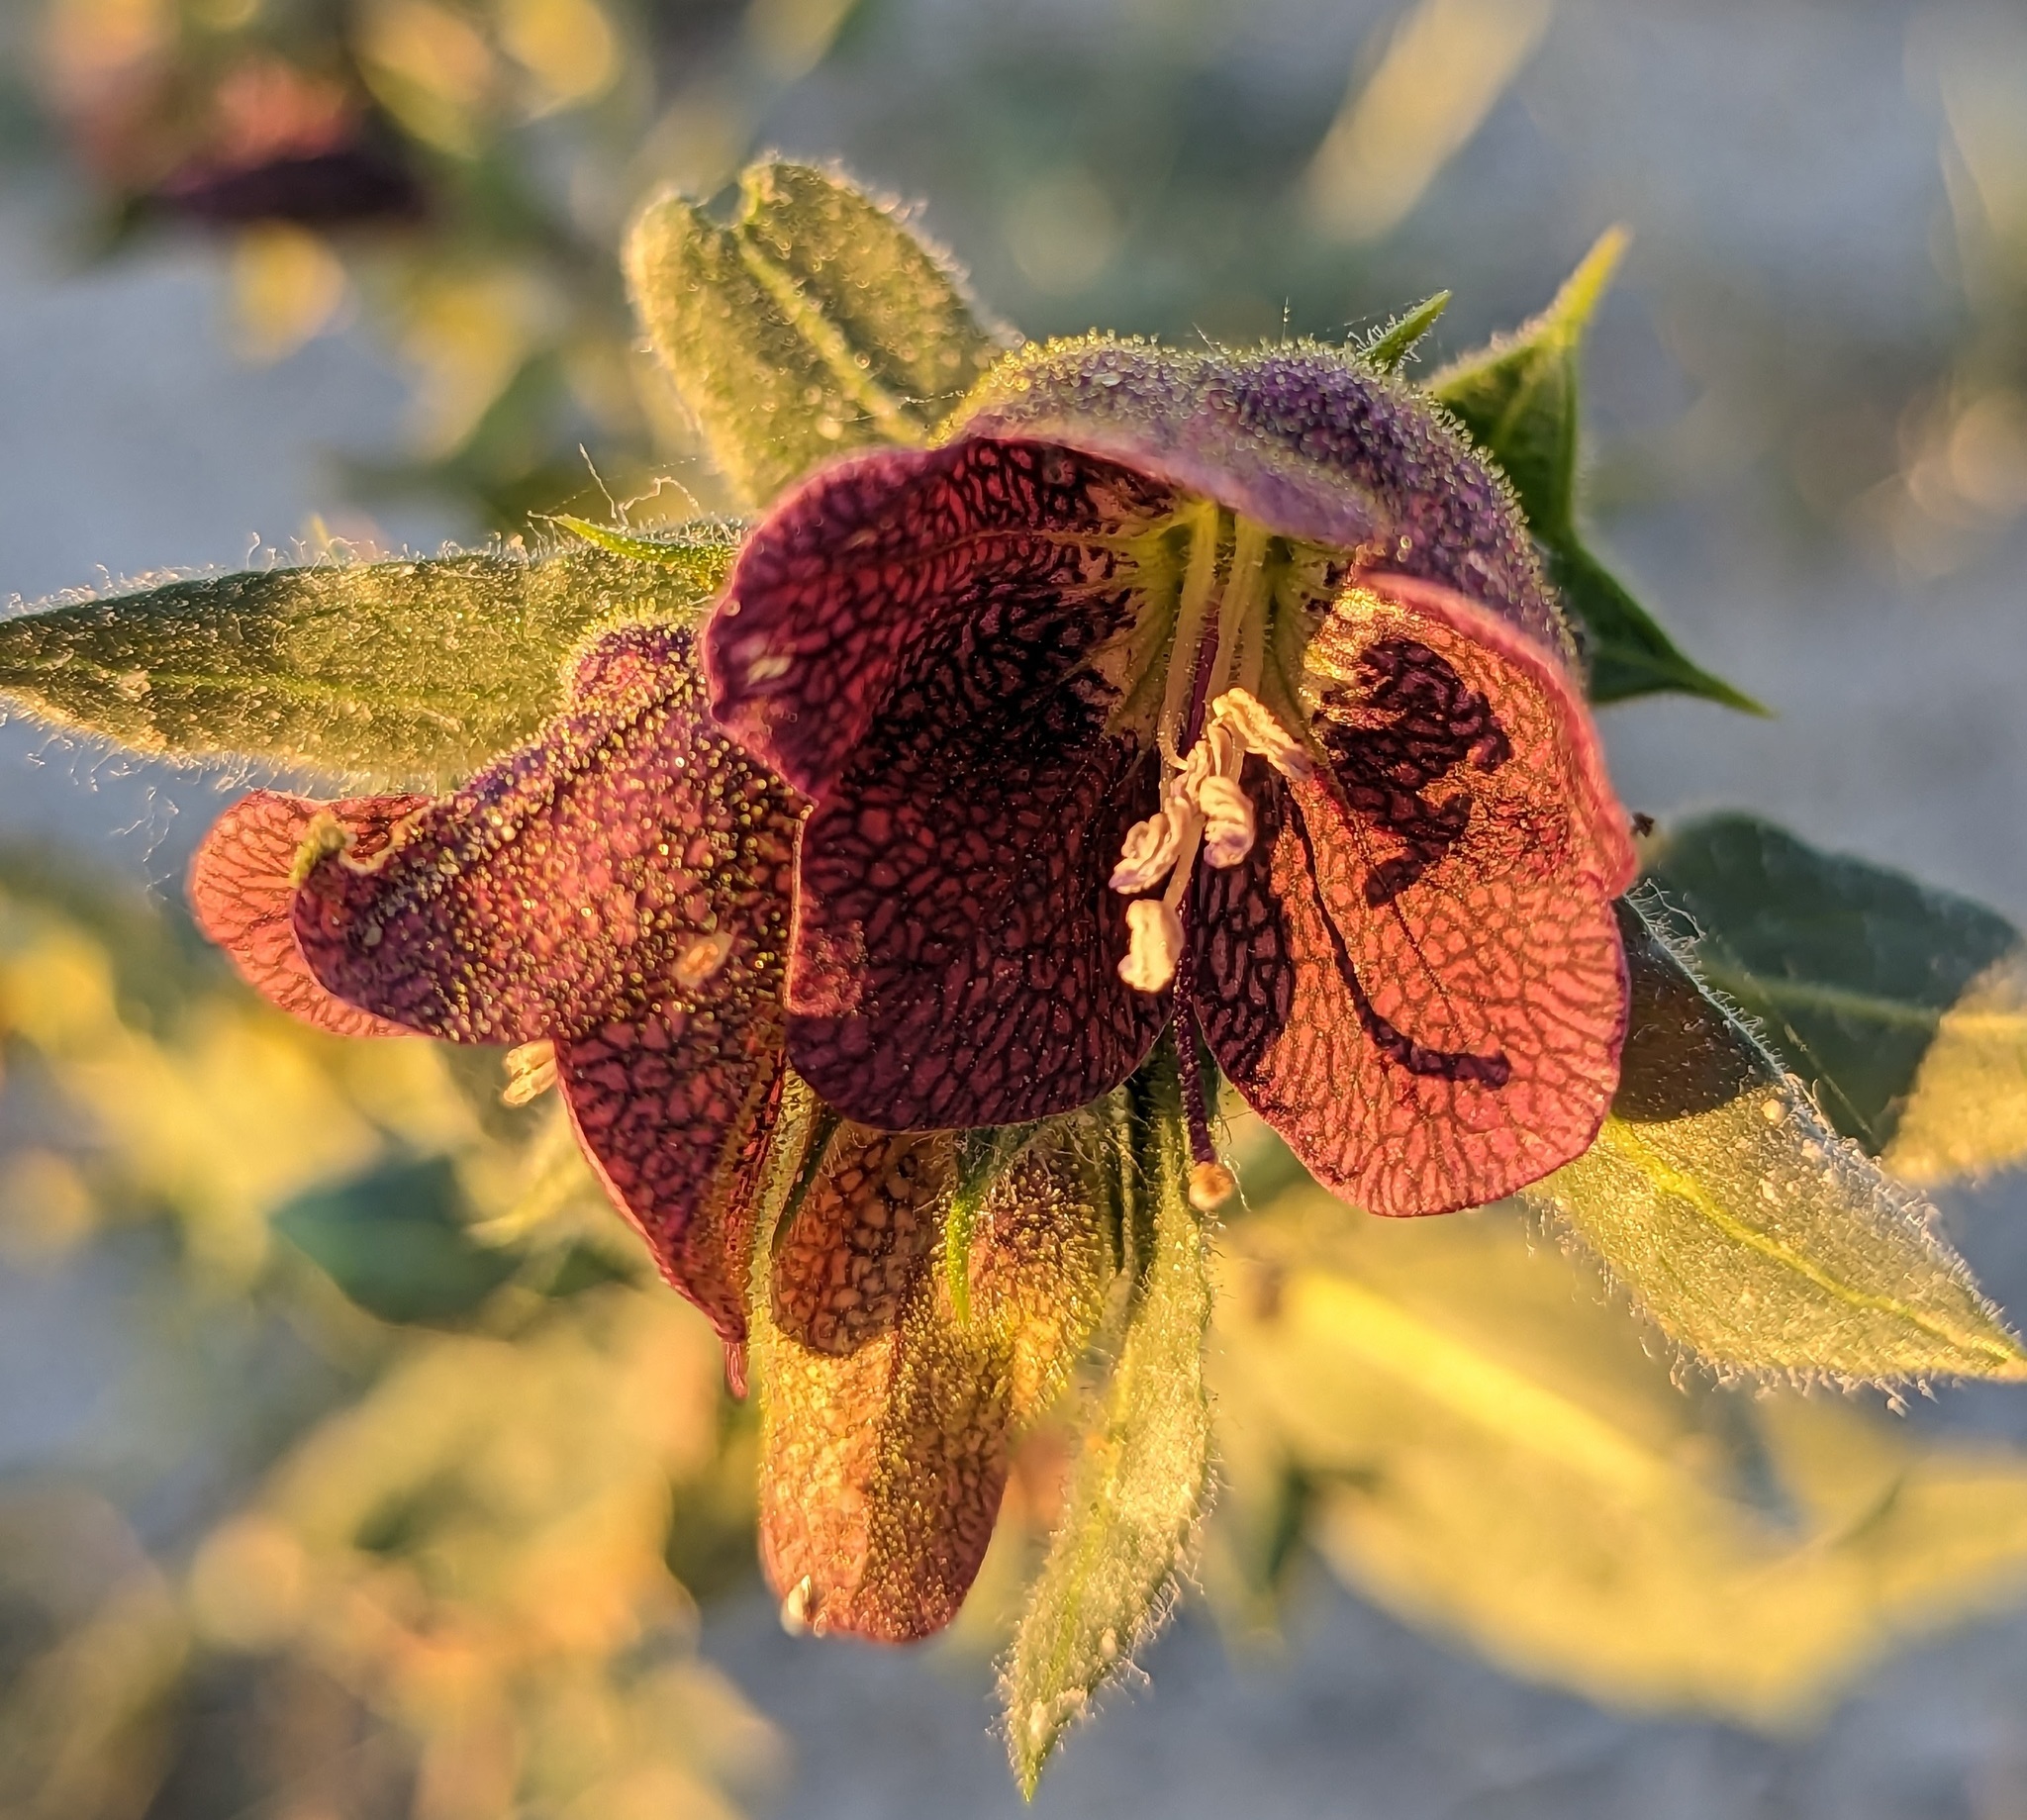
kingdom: Plantae
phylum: Tracheophyta
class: Magnoliopsida
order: Solanales
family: Solanaceae
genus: Hyoscyamus
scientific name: Hyoscyamus reticulatus
